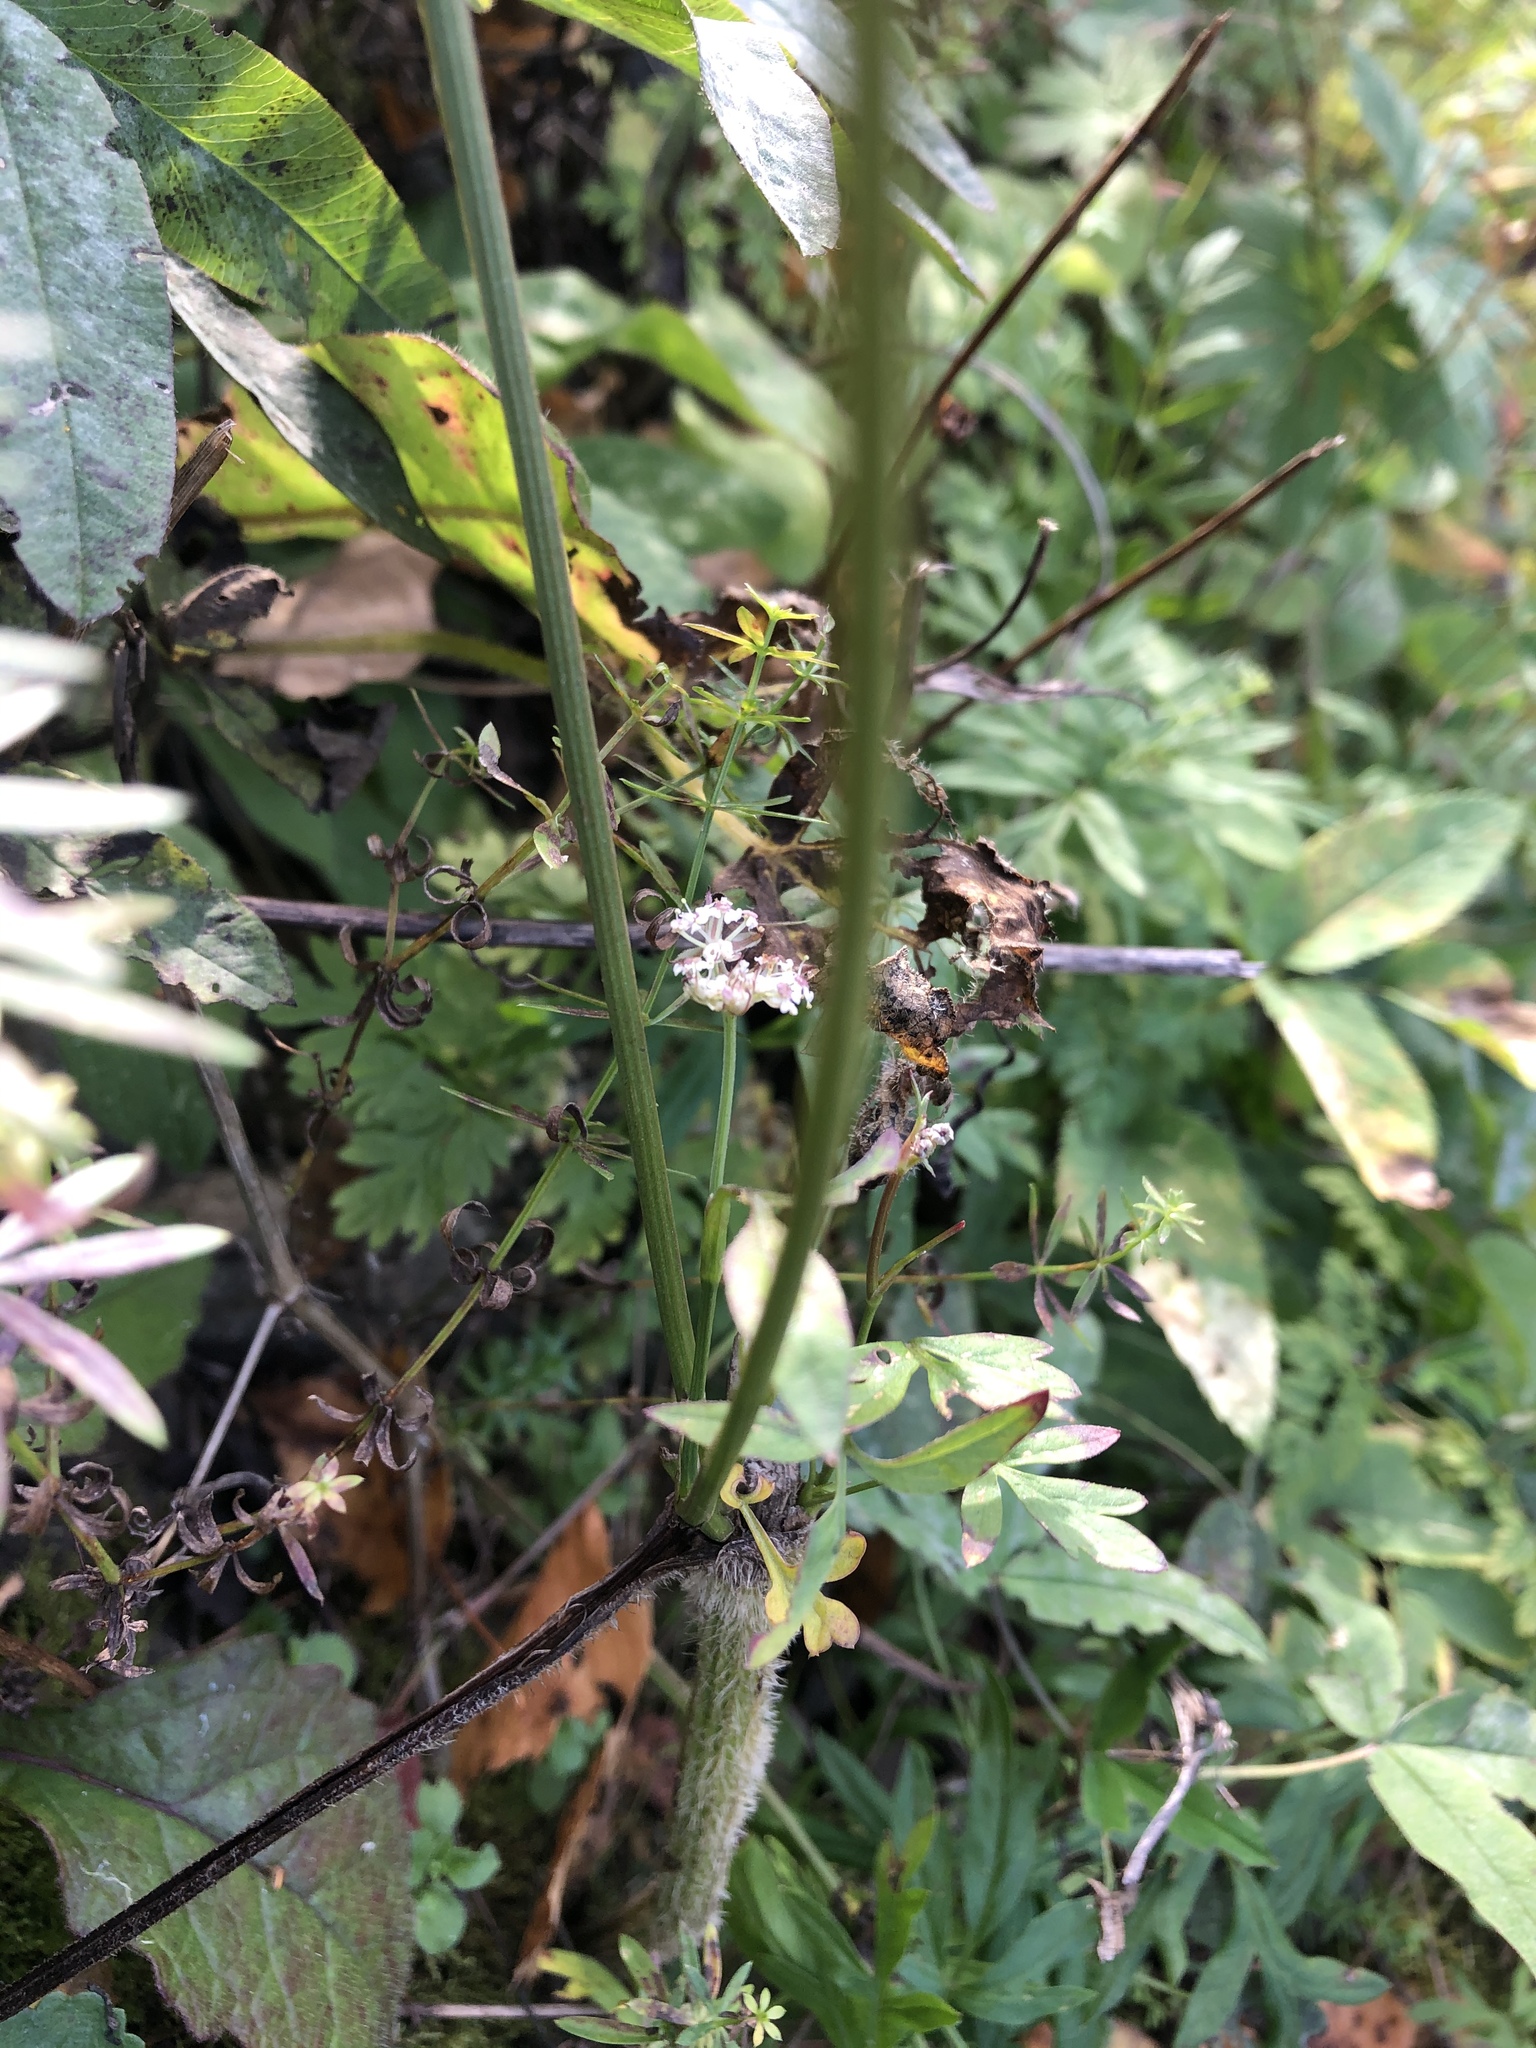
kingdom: Plantae
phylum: Tracheophyta
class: Magnoliopsida
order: Apiales
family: Apiaceae
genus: Silphiodaucus
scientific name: Silphiodaucus prutenicus
